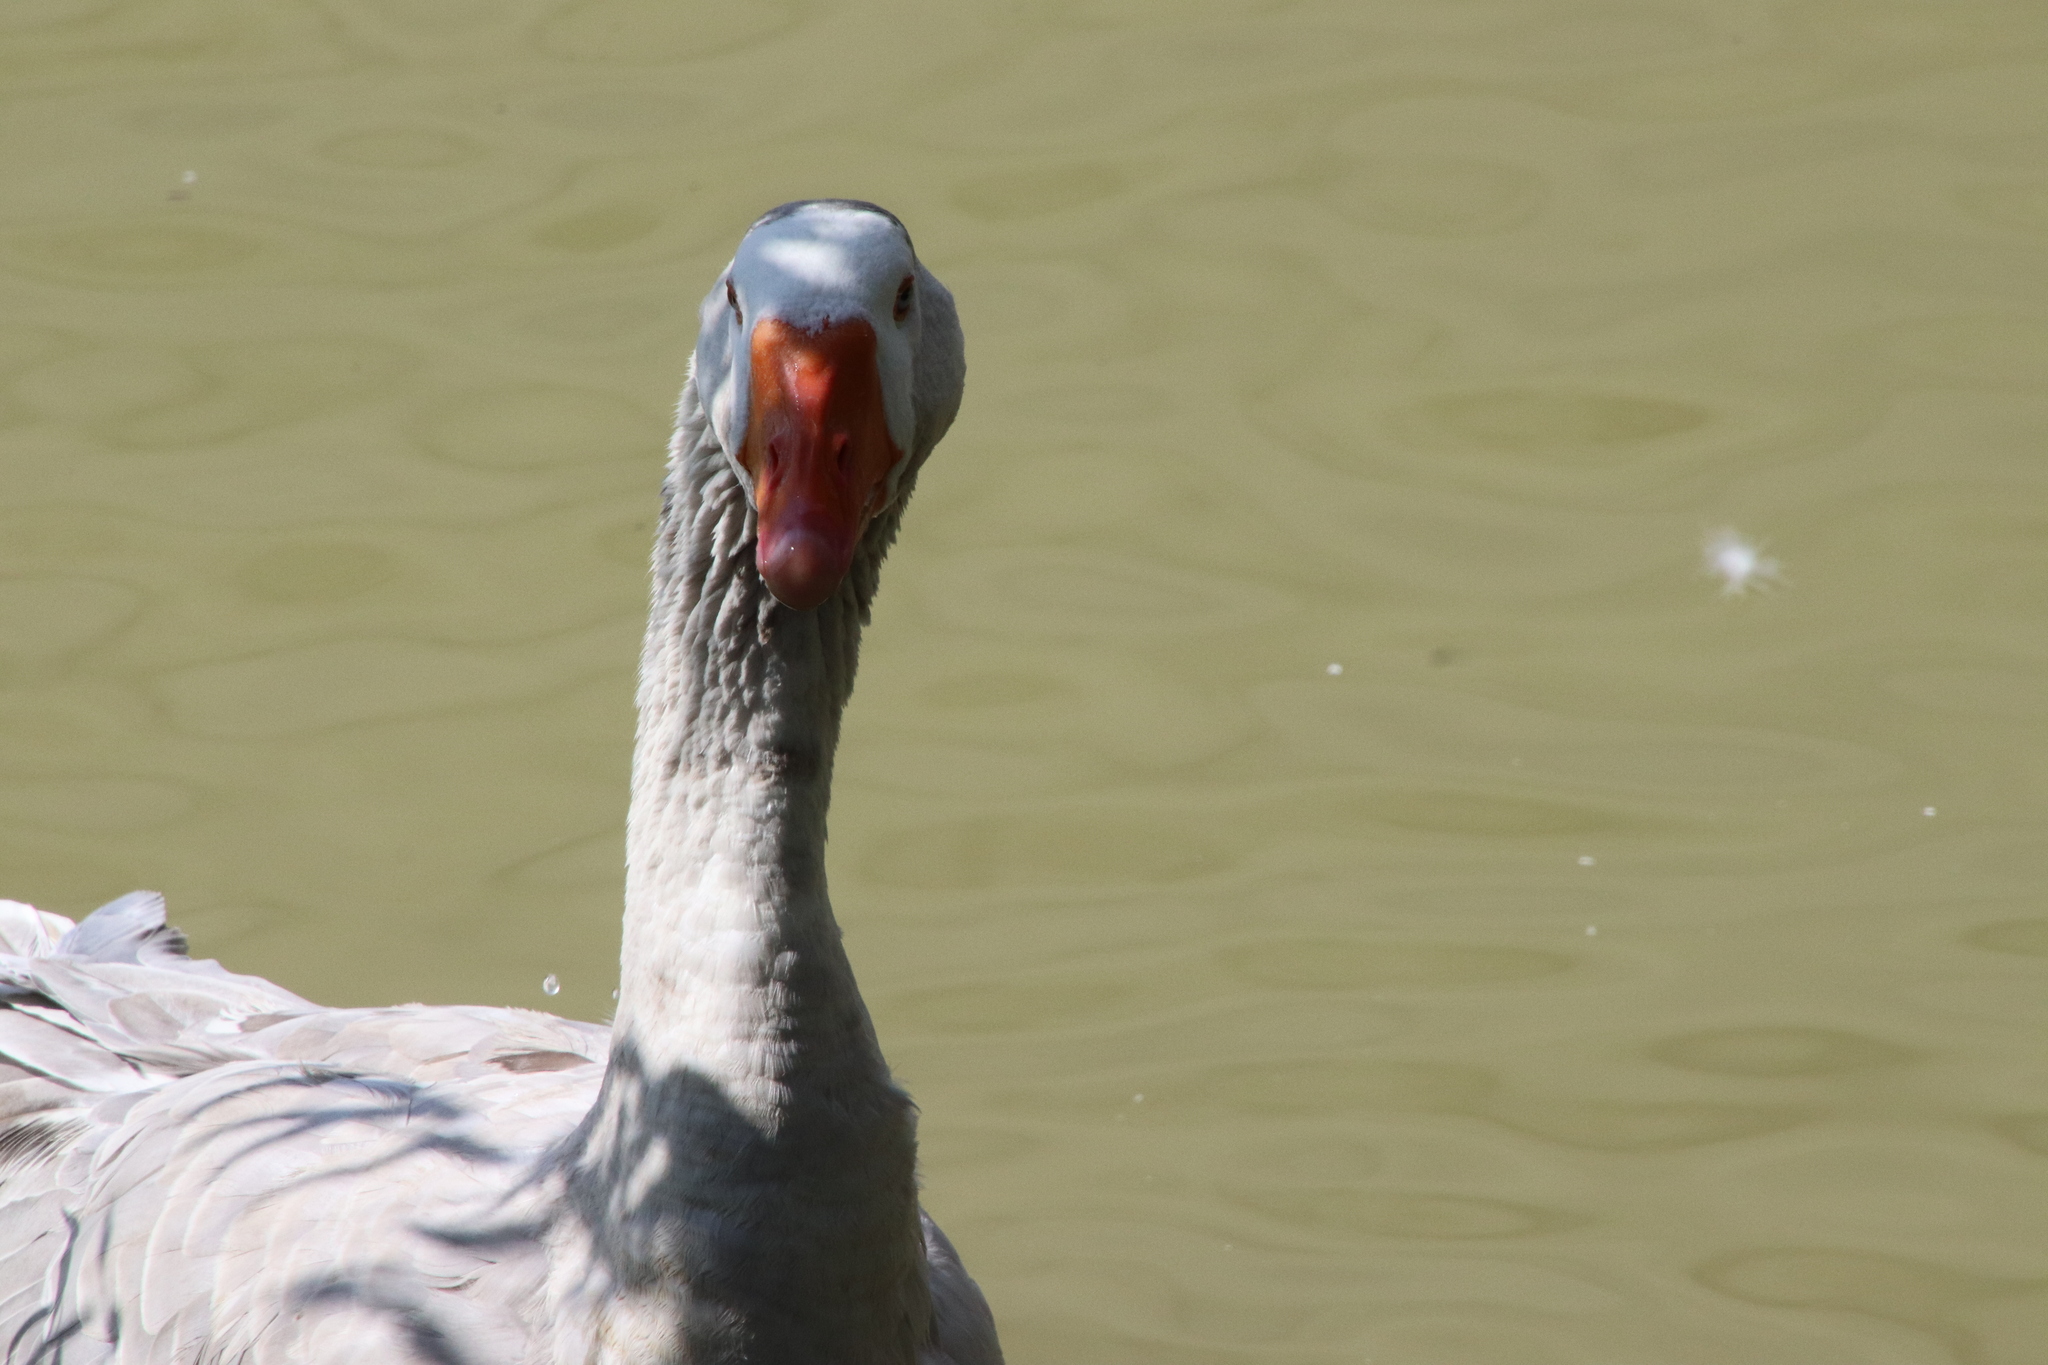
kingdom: Animalia
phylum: Chordata
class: Aves
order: Anseriformes
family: Anatidae
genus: Anser
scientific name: Anser anser
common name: Greylag goose
